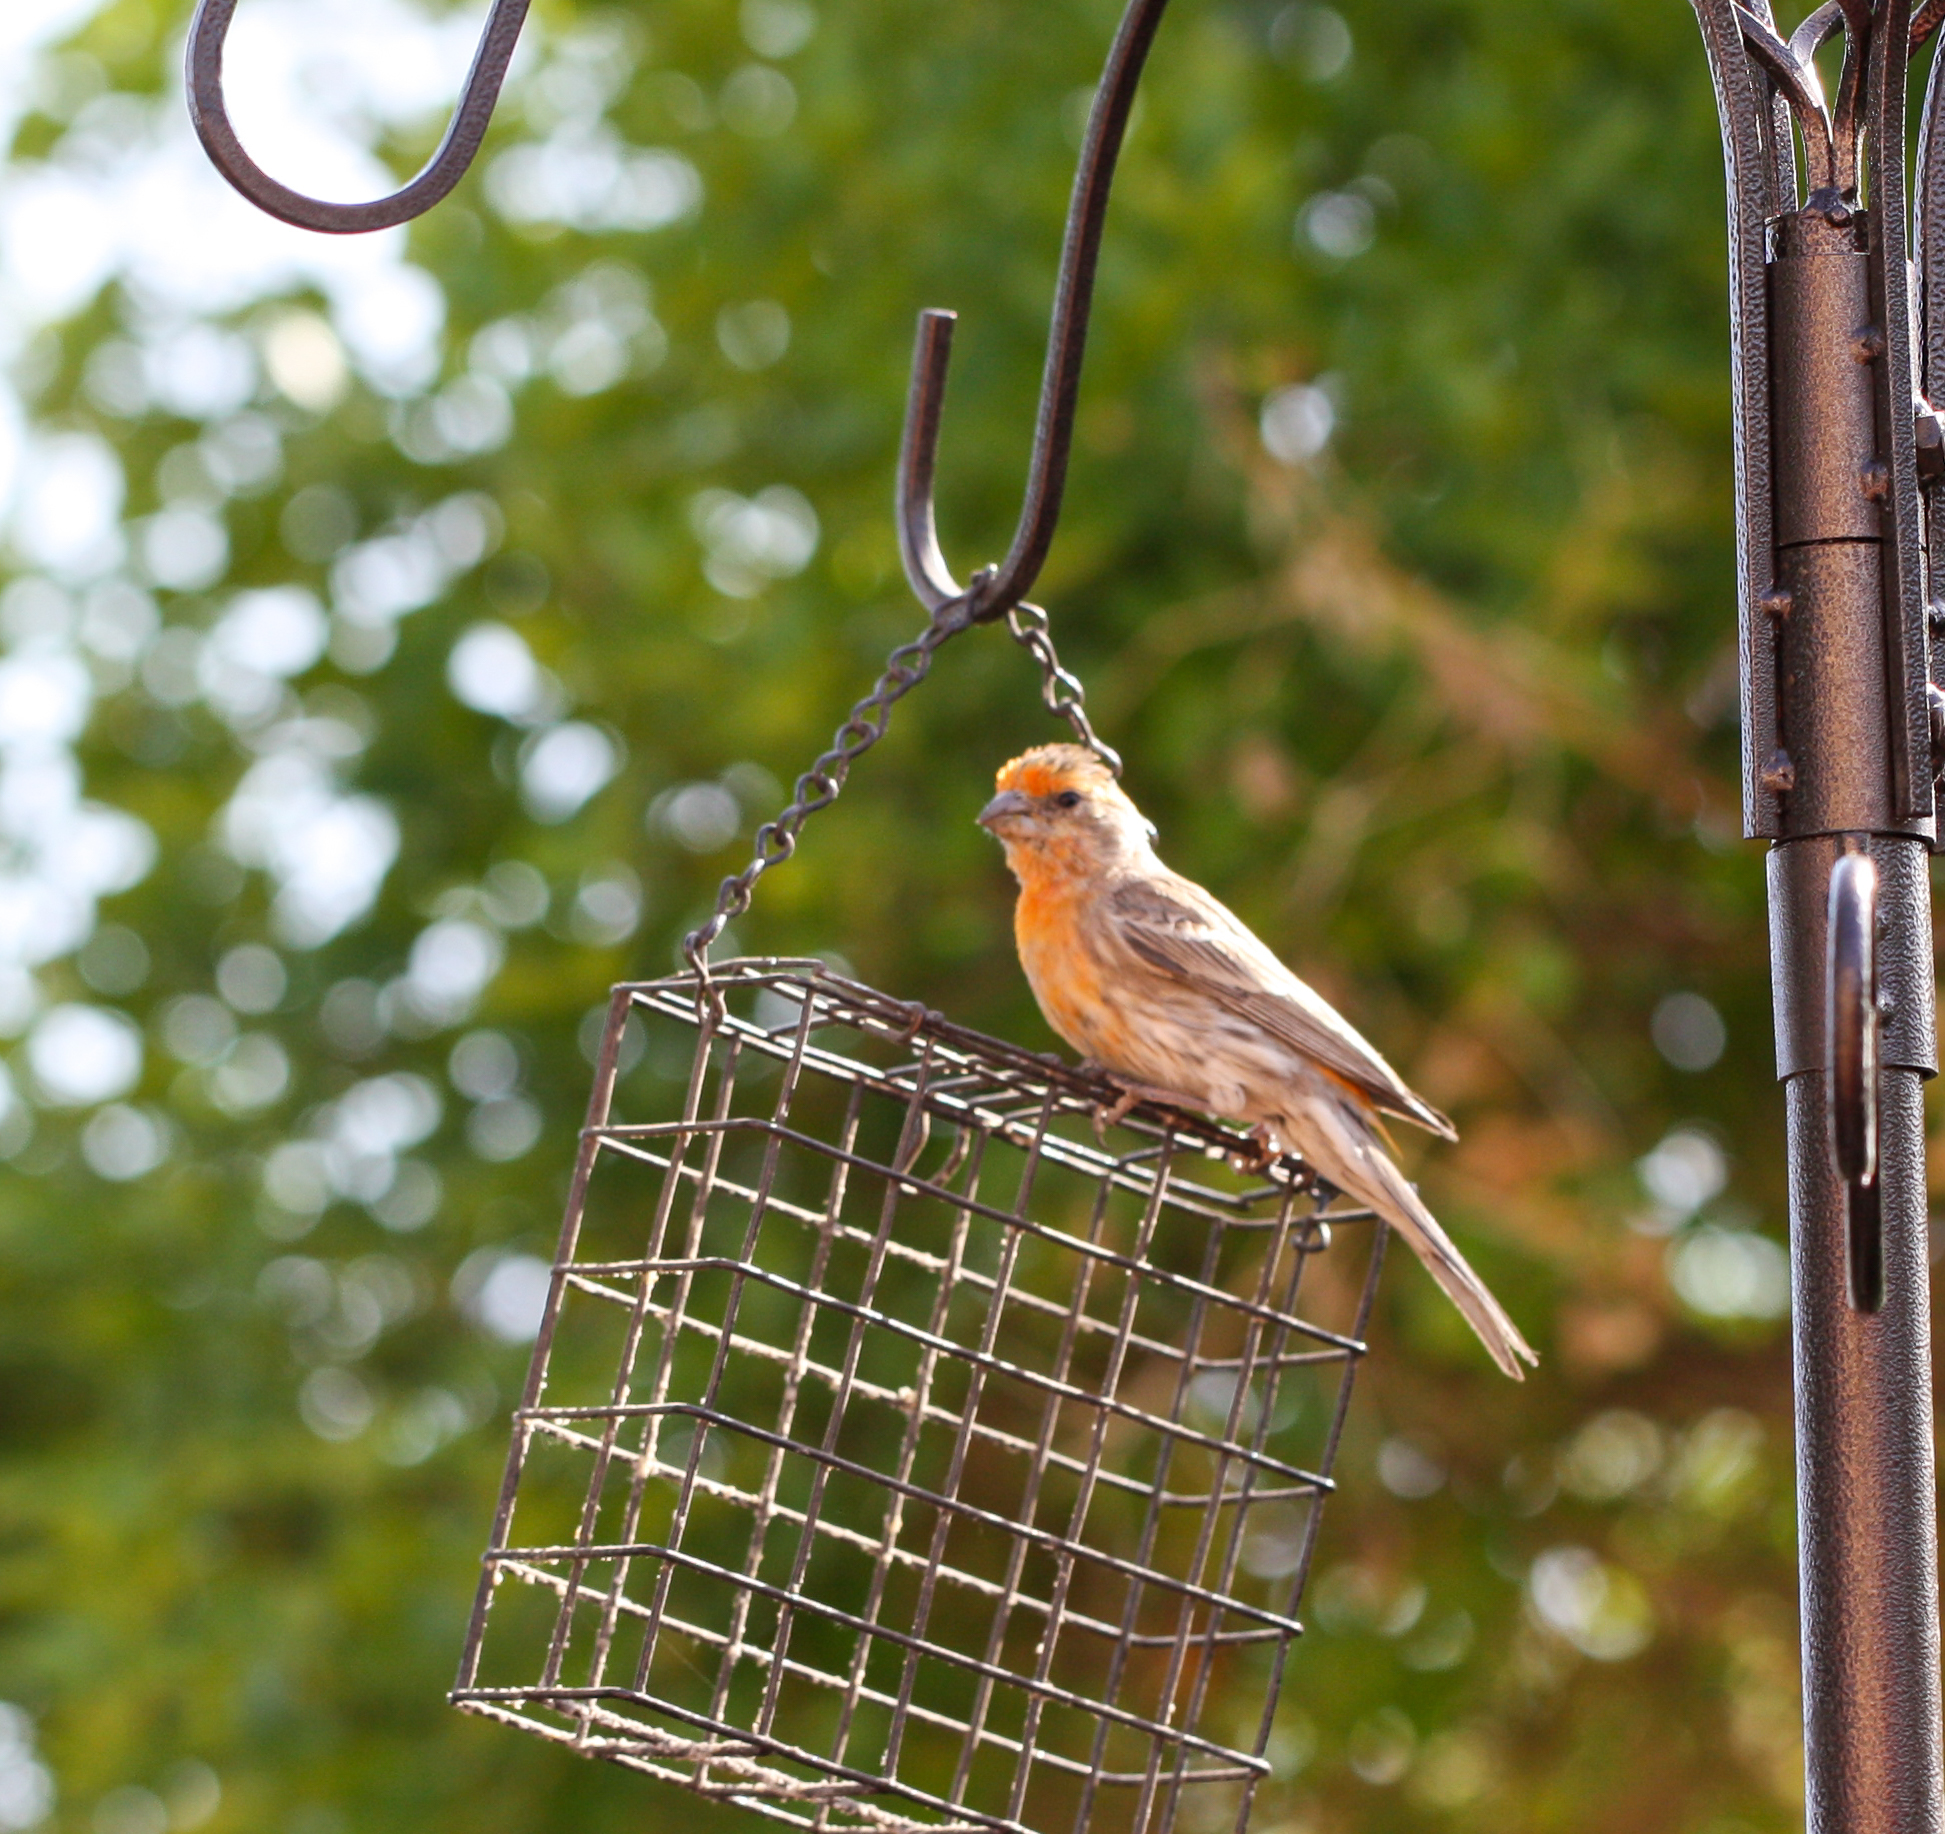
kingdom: Animalia
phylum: Chordata
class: Aves
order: Passeriformes
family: Fringillidae
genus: Haemorhous
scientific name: Haemorhous mexicanus
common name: House finch
